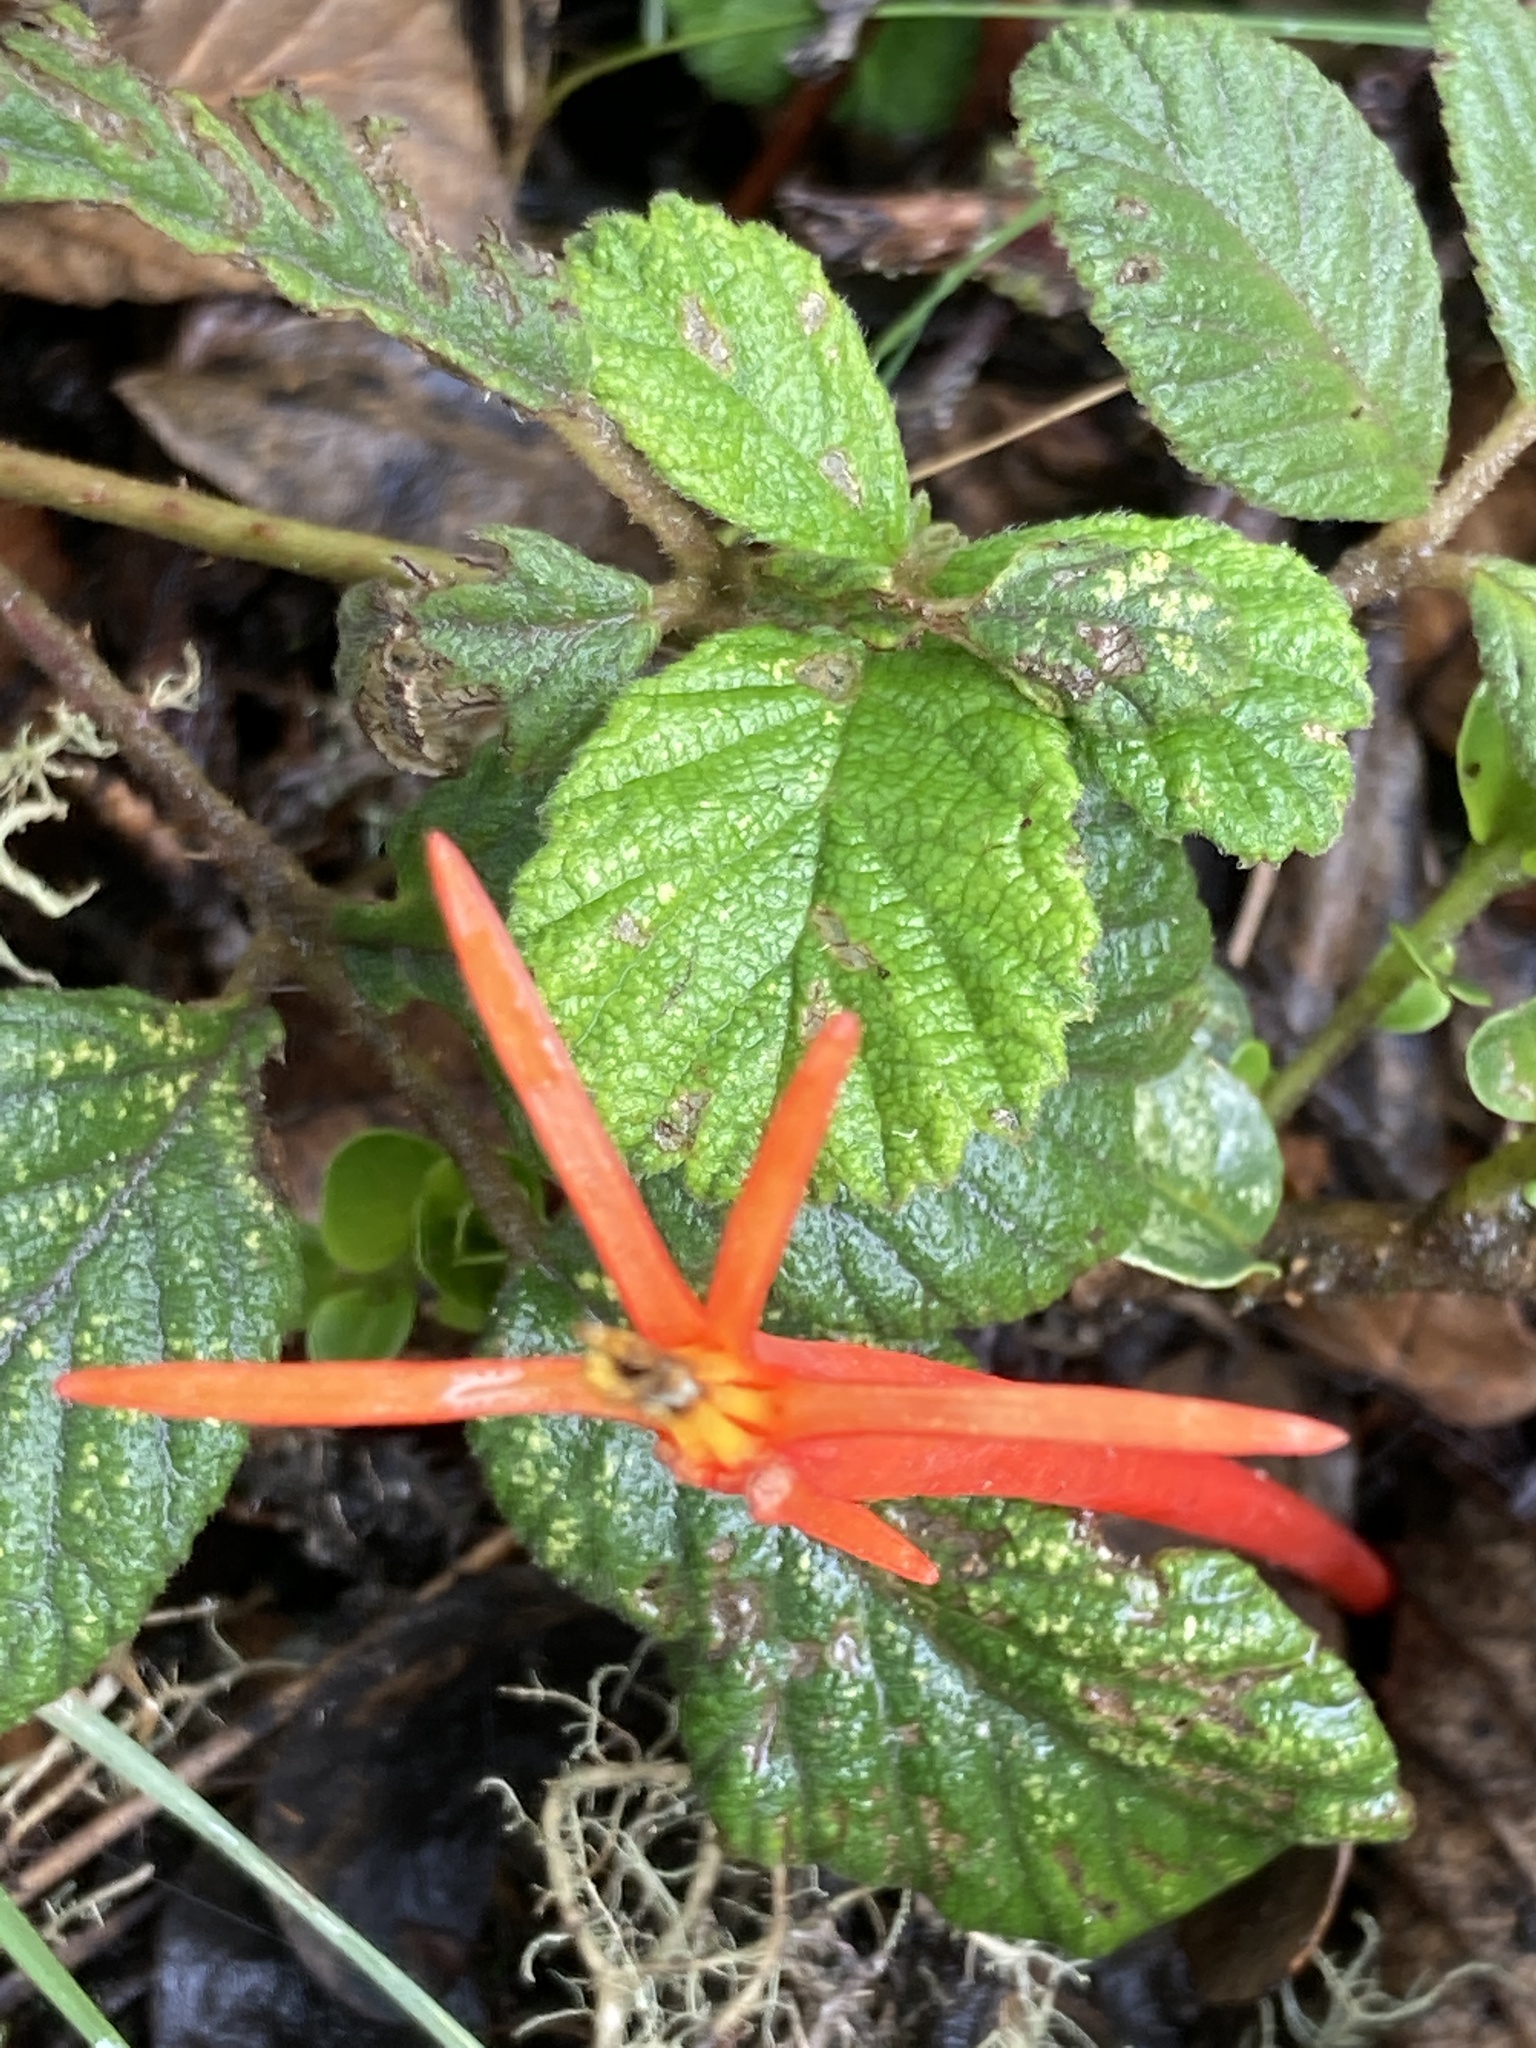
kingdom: Plantae
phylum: Tracheophyta
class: Magnoliopsida
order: Santalales
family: Loranthaceae
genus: Aetanthus
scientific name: Aetanthus mutisii
